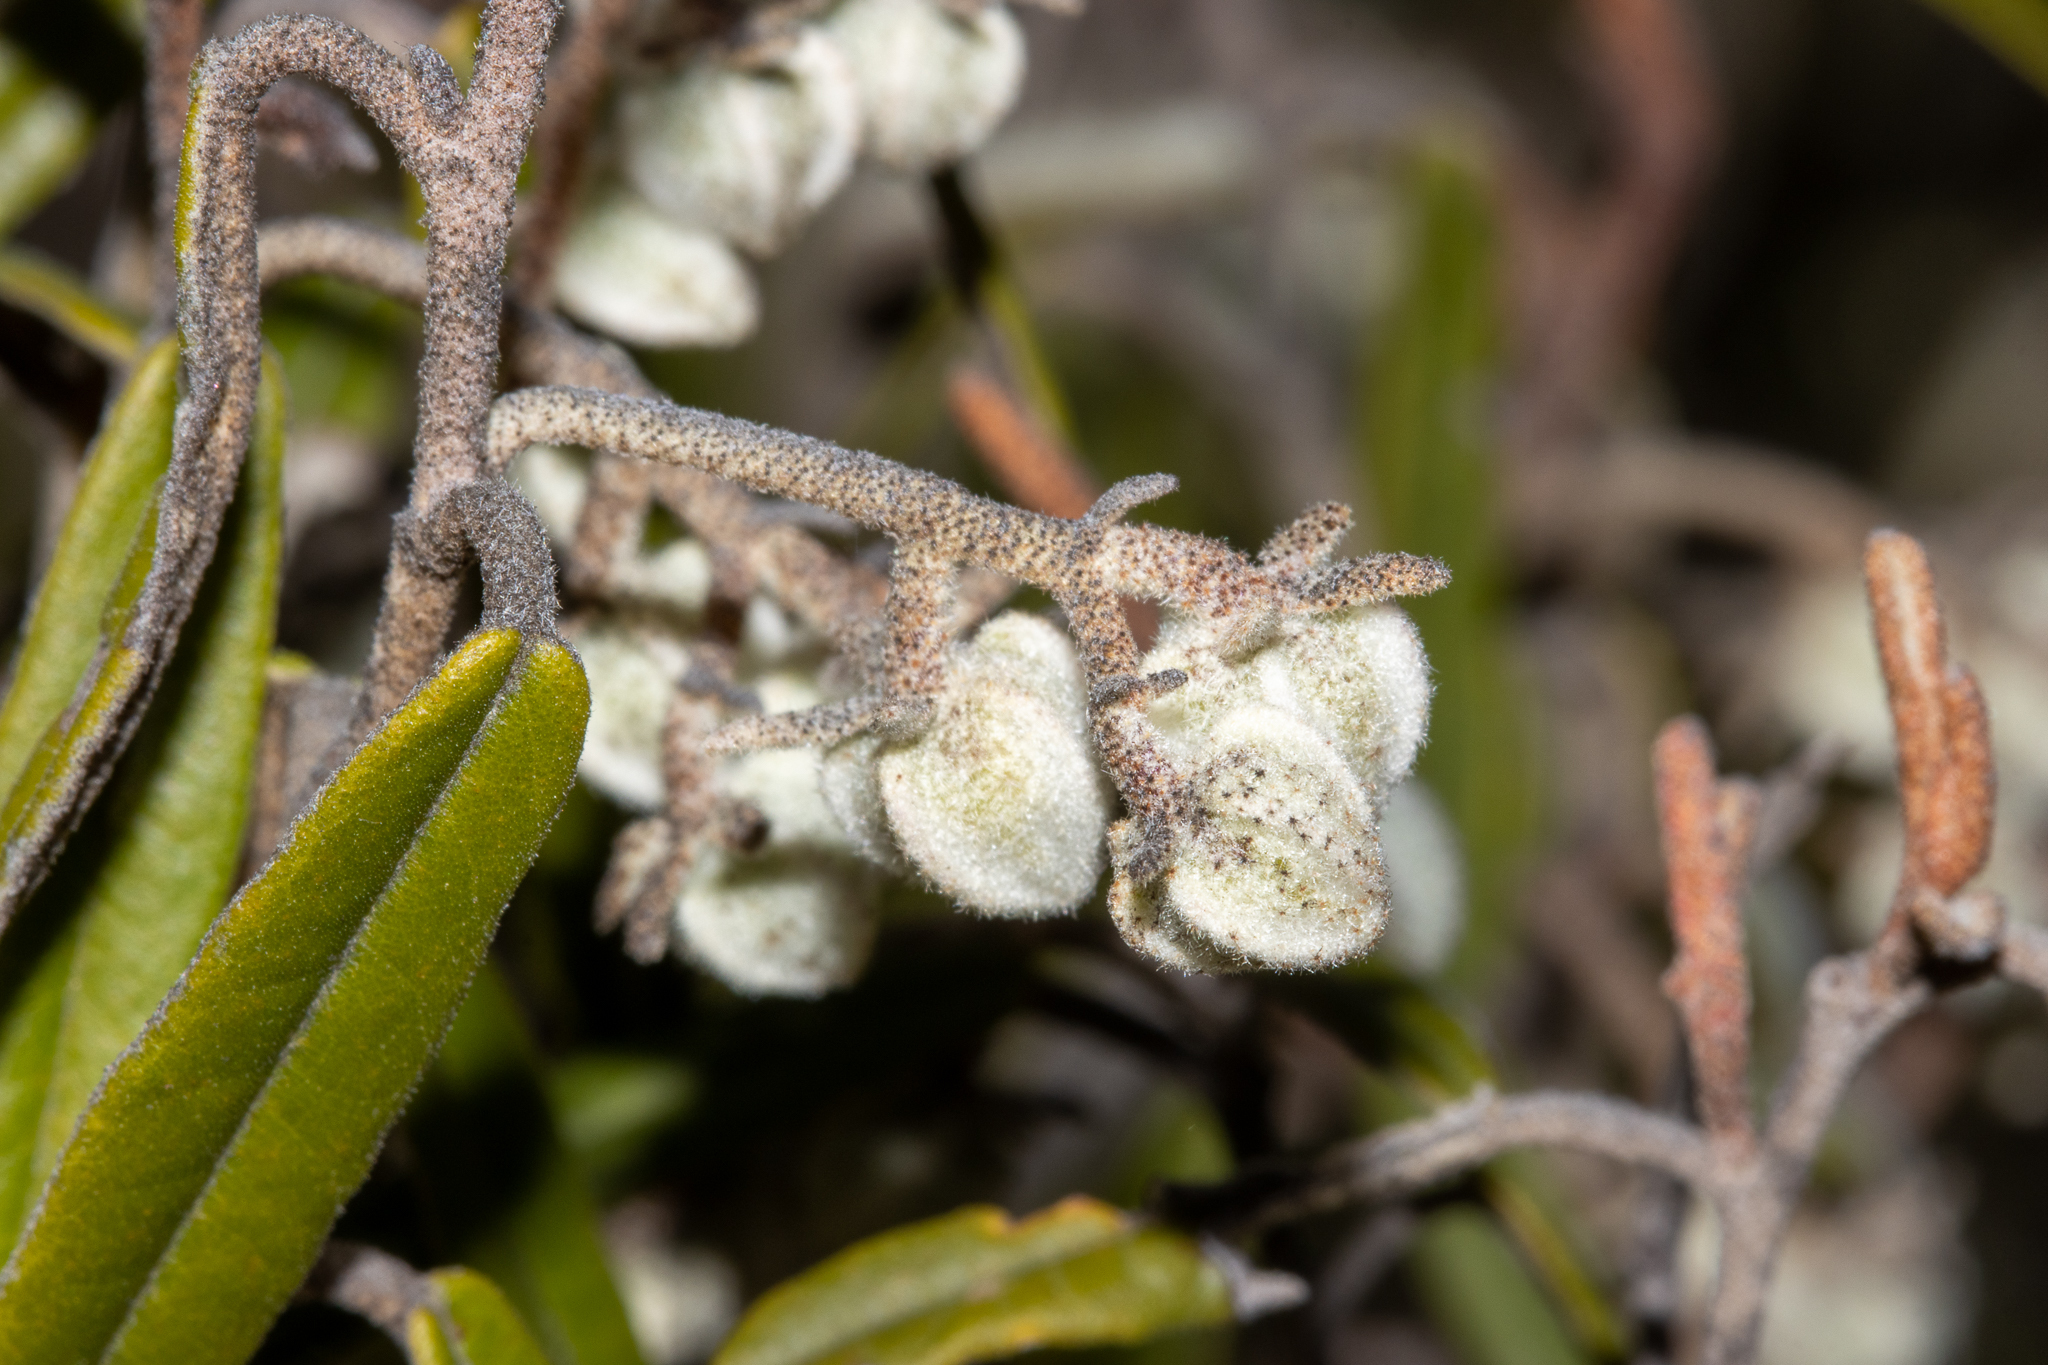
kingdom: Plantae
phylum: Tracheophyta
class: Magnoliopsida
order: Malvales
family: Malvaceae
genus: Lasiopetalum
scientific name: Lasiopetalum behrii
